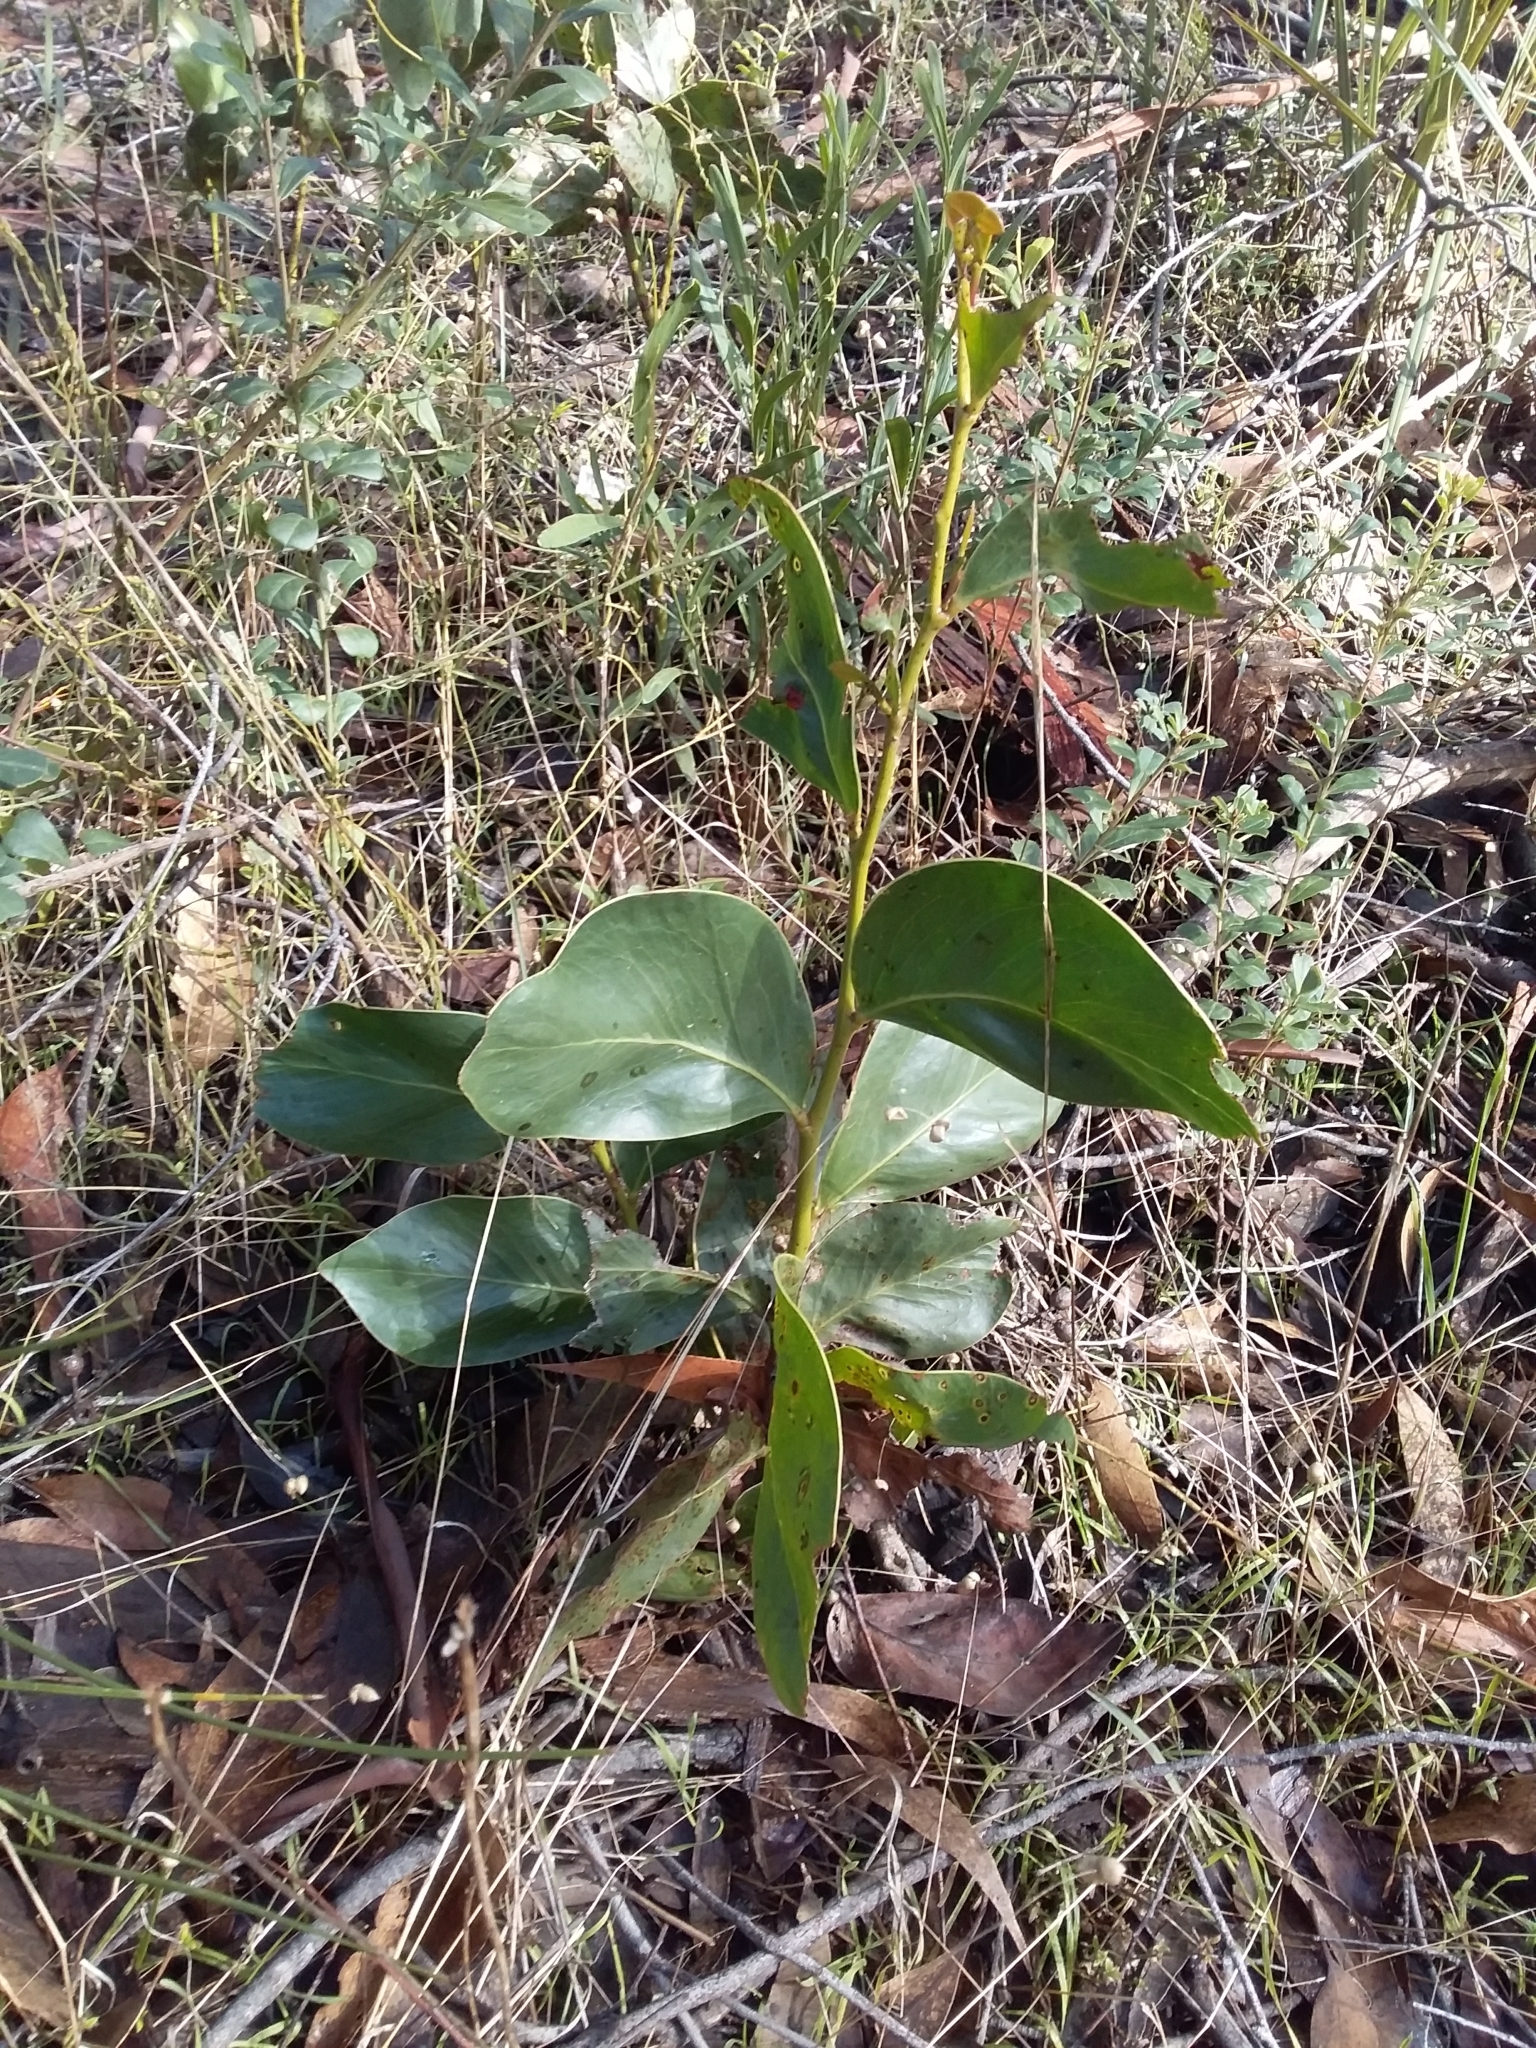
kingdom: Plantae
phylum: Tracheophyta
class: Magnoliopsida
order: Fabales
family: Fabaceae
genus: Acacia
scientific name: Acacia pycnantha
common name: Golden wattle
